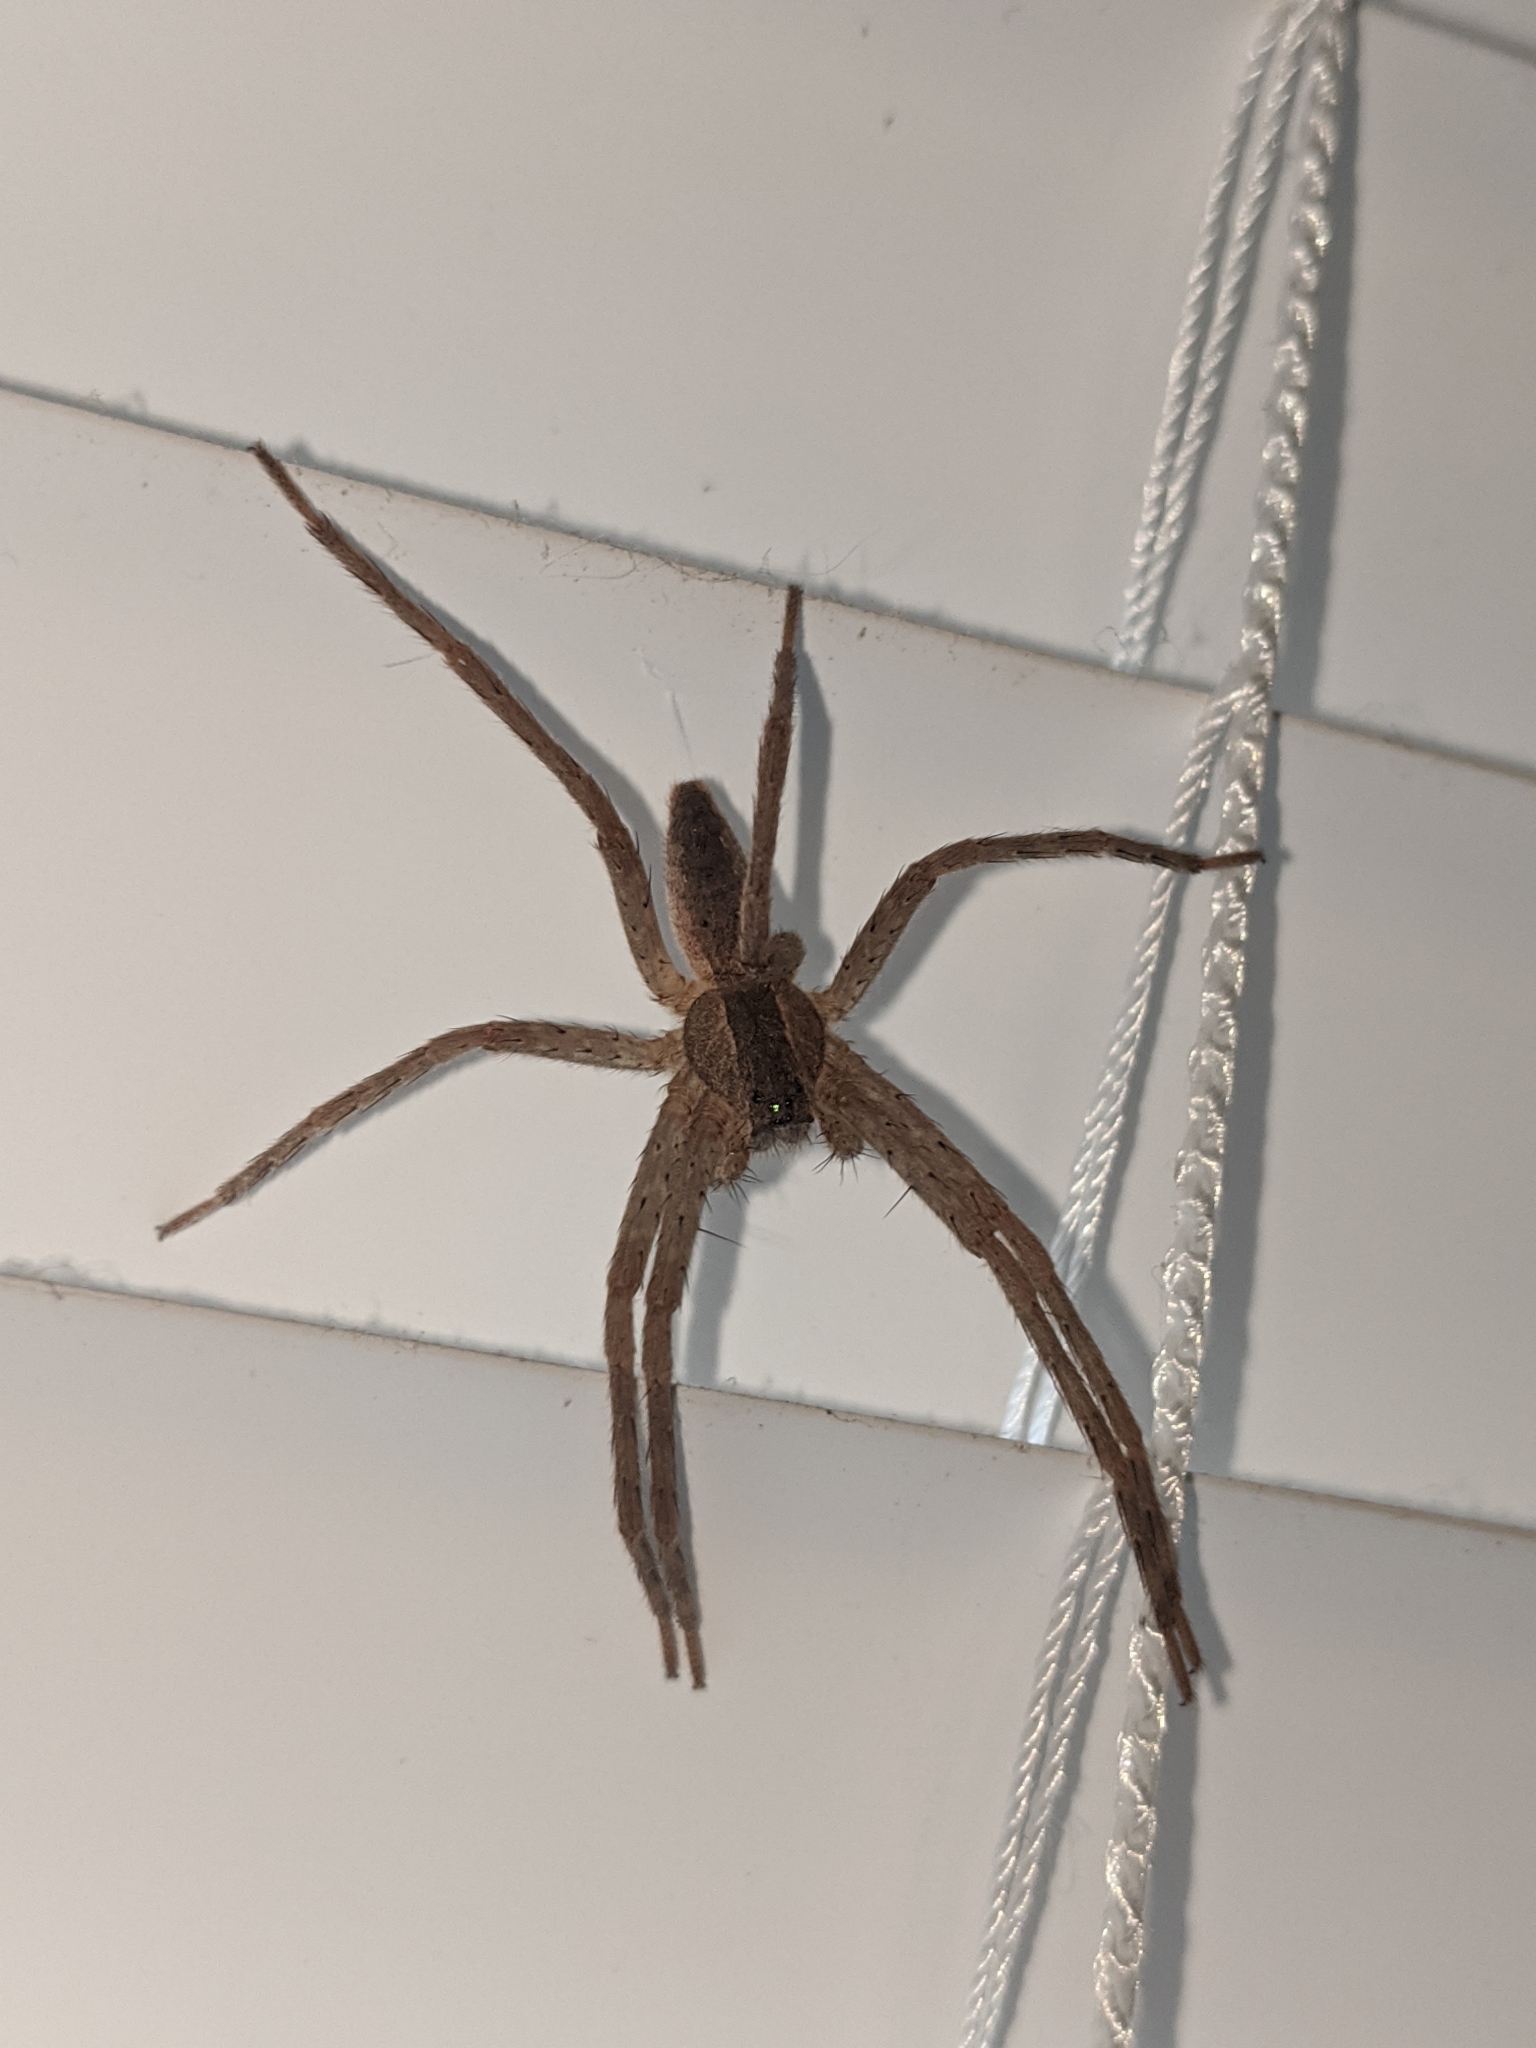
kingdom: Animalia
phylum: Arthropoda
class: Arachnida
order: Araneae
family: Pisauridae
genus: Pisaurina
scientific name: Pisaurina mira
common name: American nursery web spider
